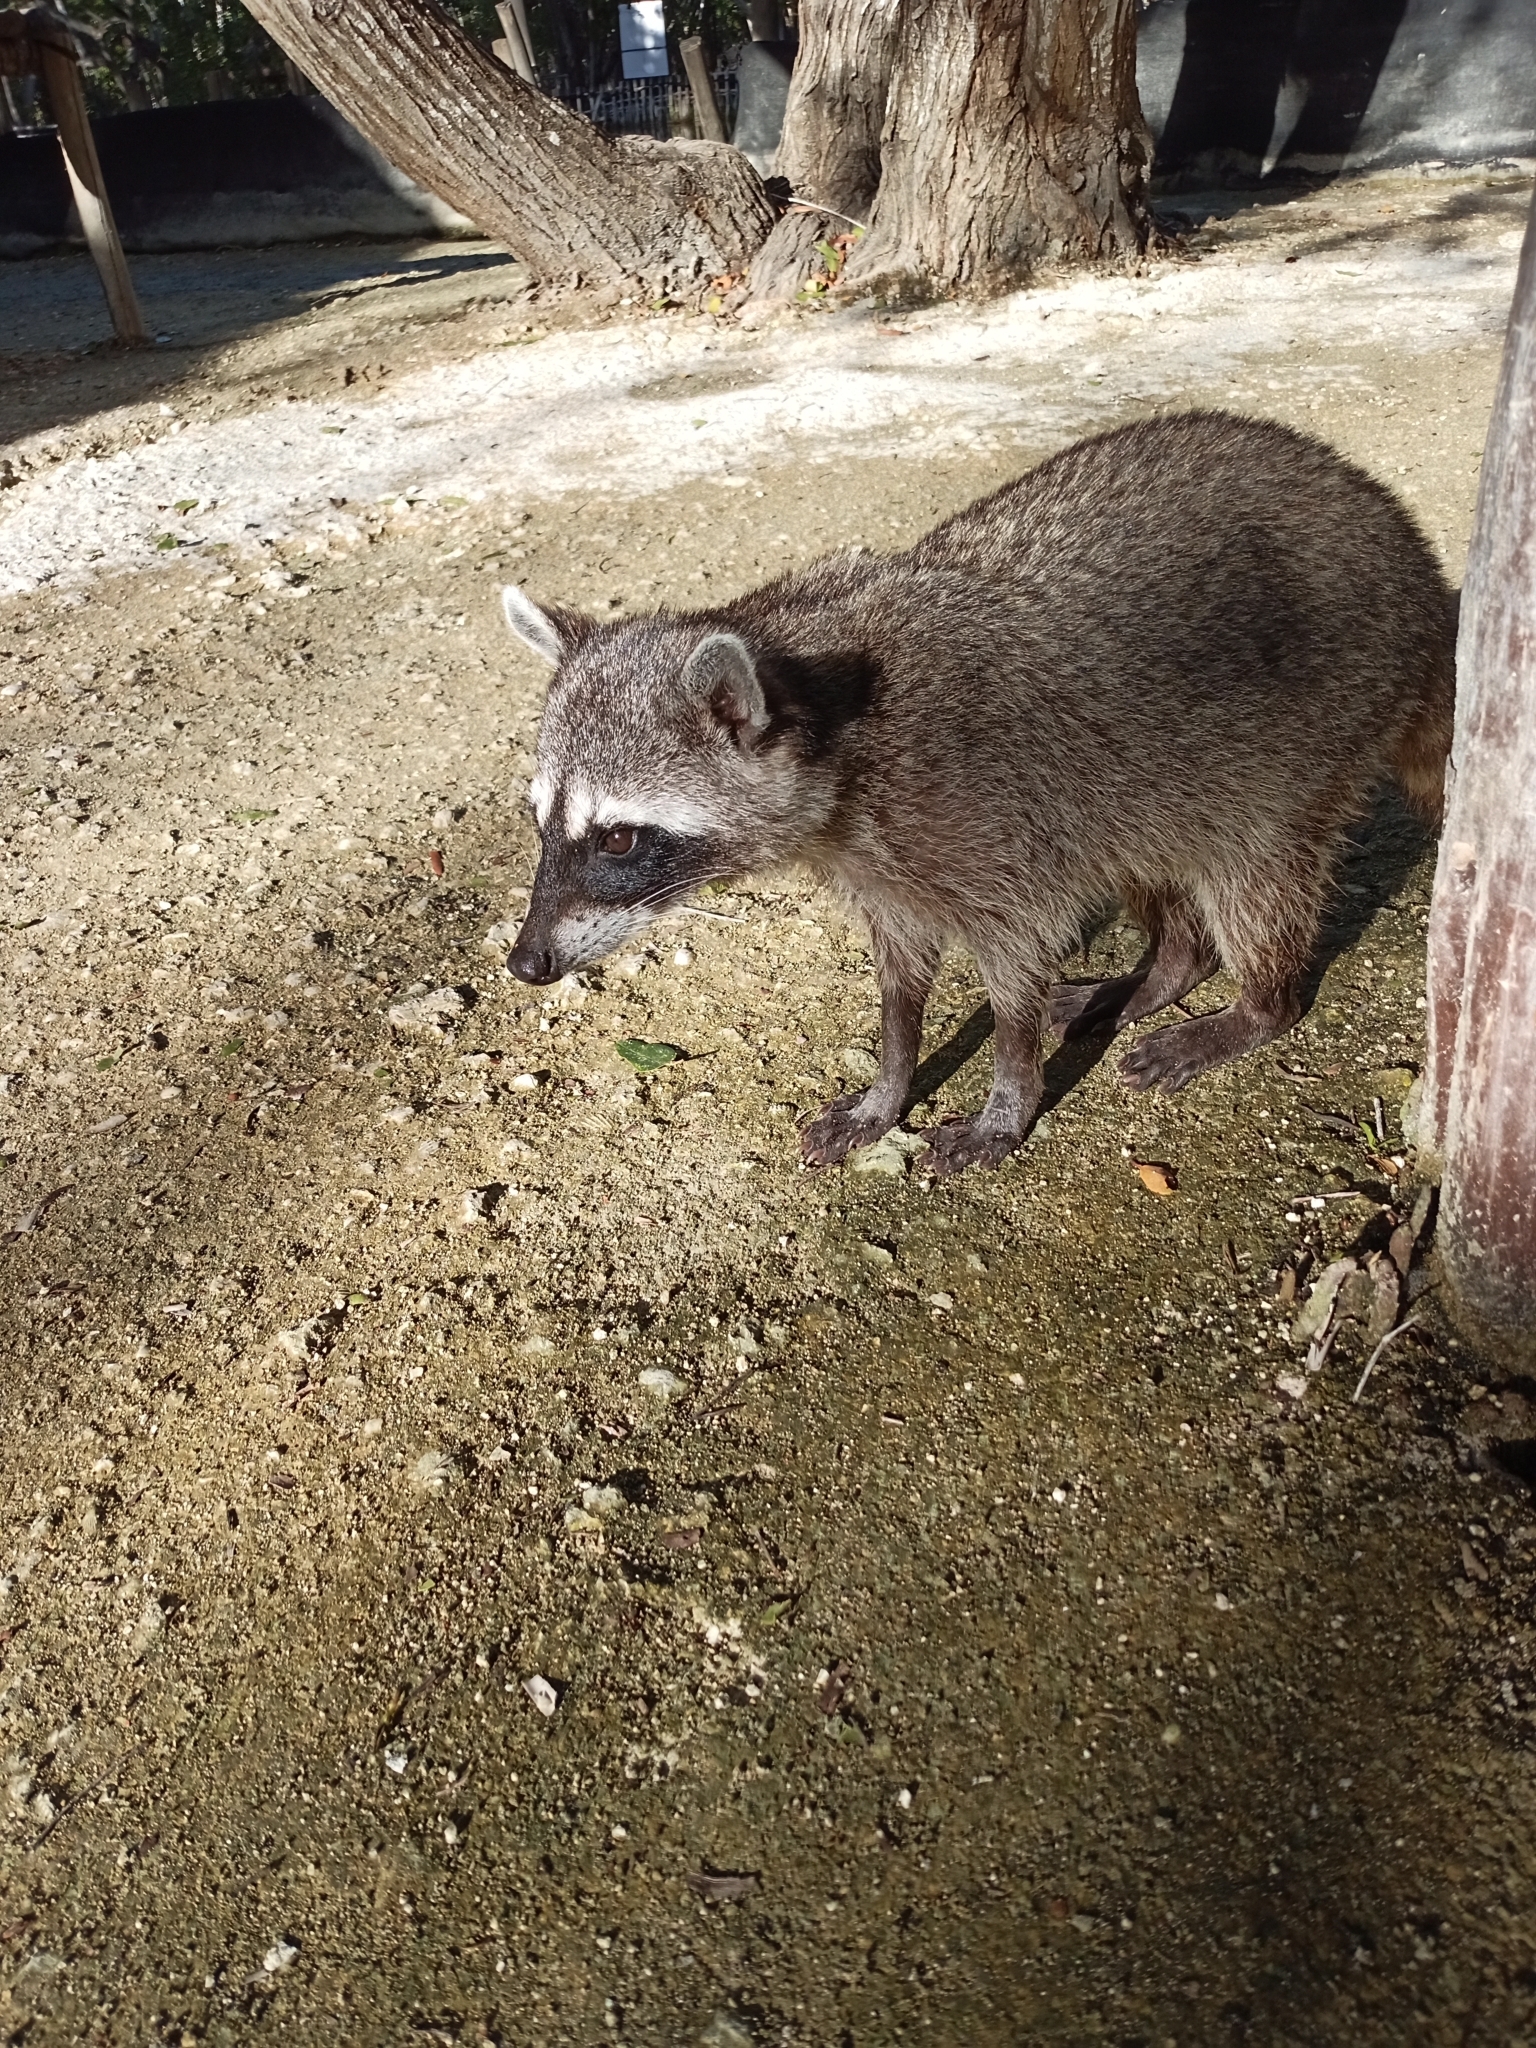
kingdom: Animalia
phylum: Chordata
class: Mammalia
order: Carnivora
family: Procyonidae
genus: Procyon
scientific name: Procyon lotor
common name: Raccoon
